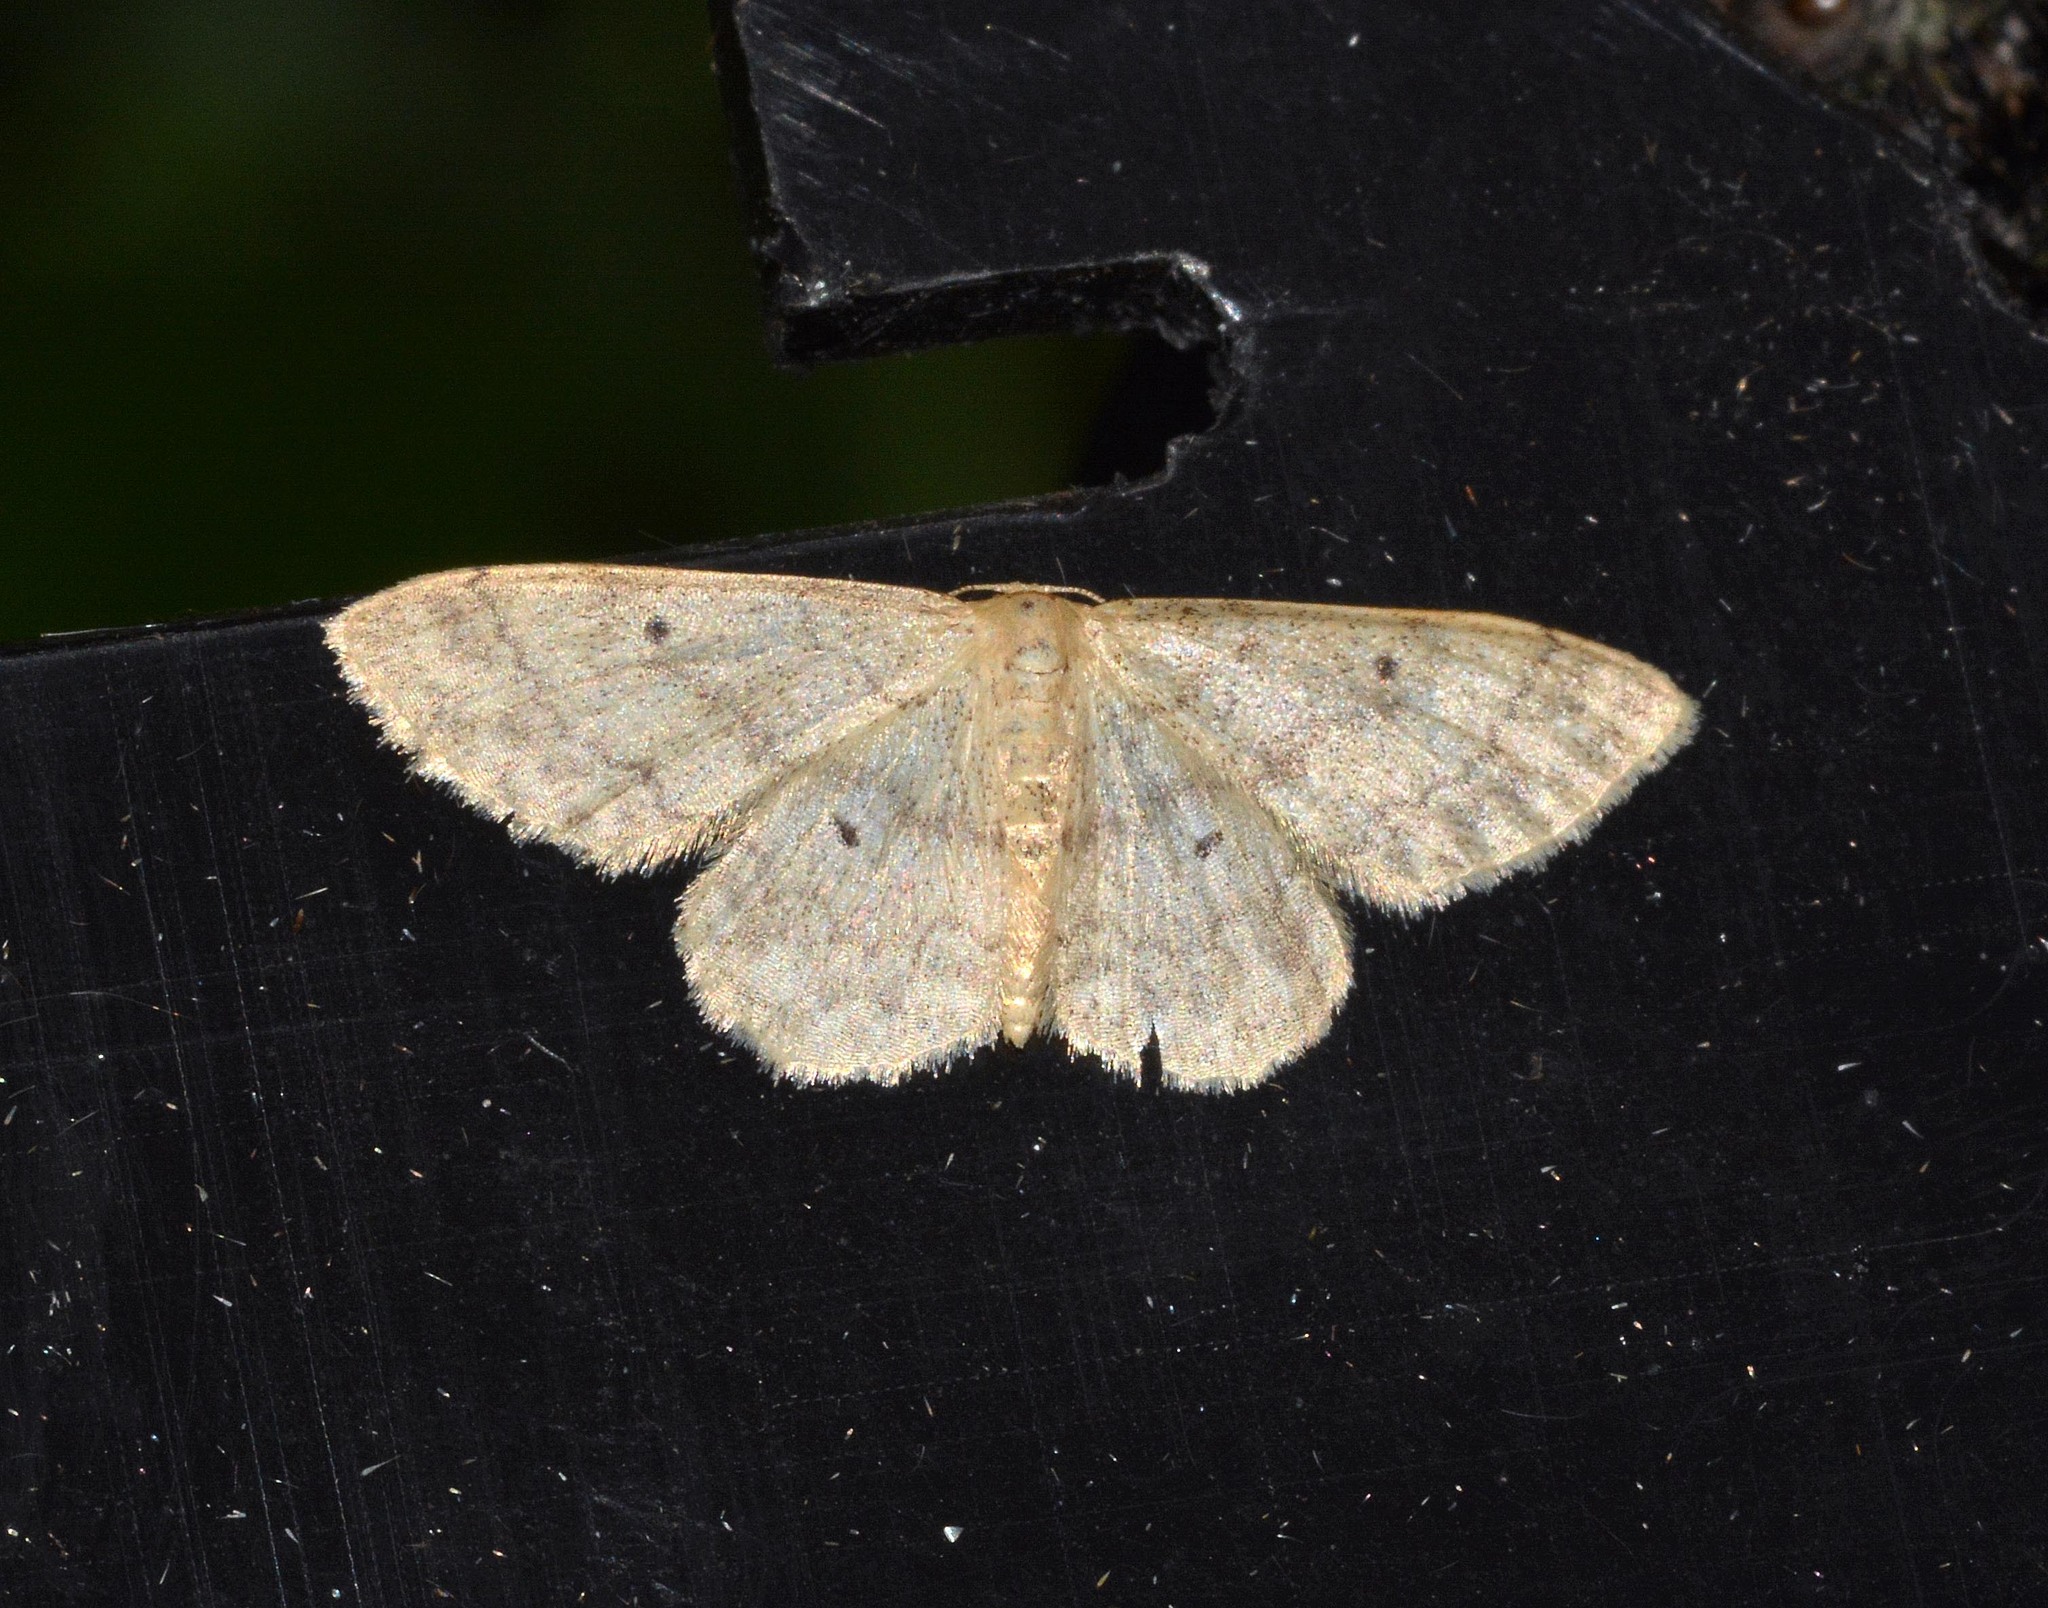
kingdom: Animalia
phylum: Arthropoda
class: Insecta
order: Lepidoptera
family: Geometridae
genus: Idaea
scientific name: Idaea biselata
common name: Small fan-footed wave
